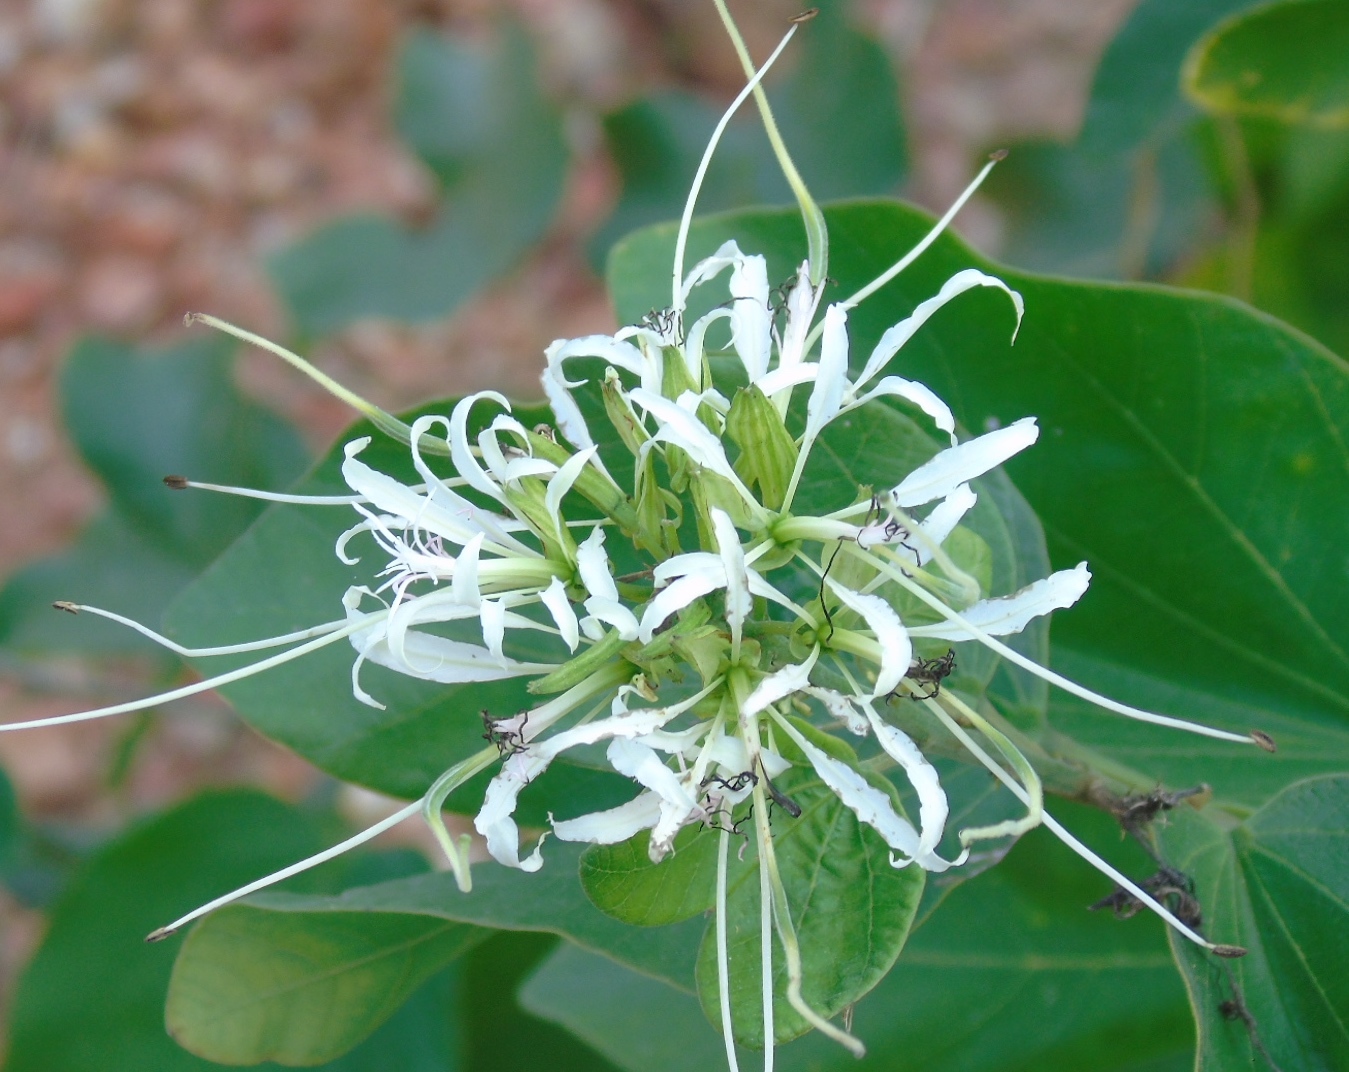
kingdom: Plantae
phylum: Tracheophyta
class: Magnoliopsida
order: Fabales
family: Fabaceae
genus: Bauhinia
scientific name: Bauhinia divaricata
